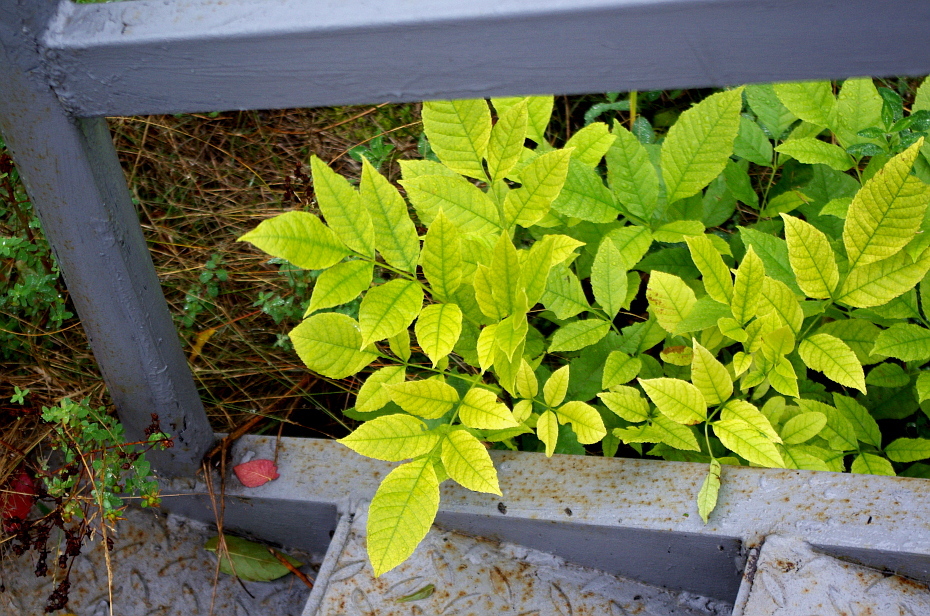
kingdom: Plantae
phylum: Tracheophyta
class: Magnoliopsida
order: Lamiales
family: Oleaceae
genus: Fraxinus
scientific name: Fraxinus pennsylvanica
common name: Green ash
